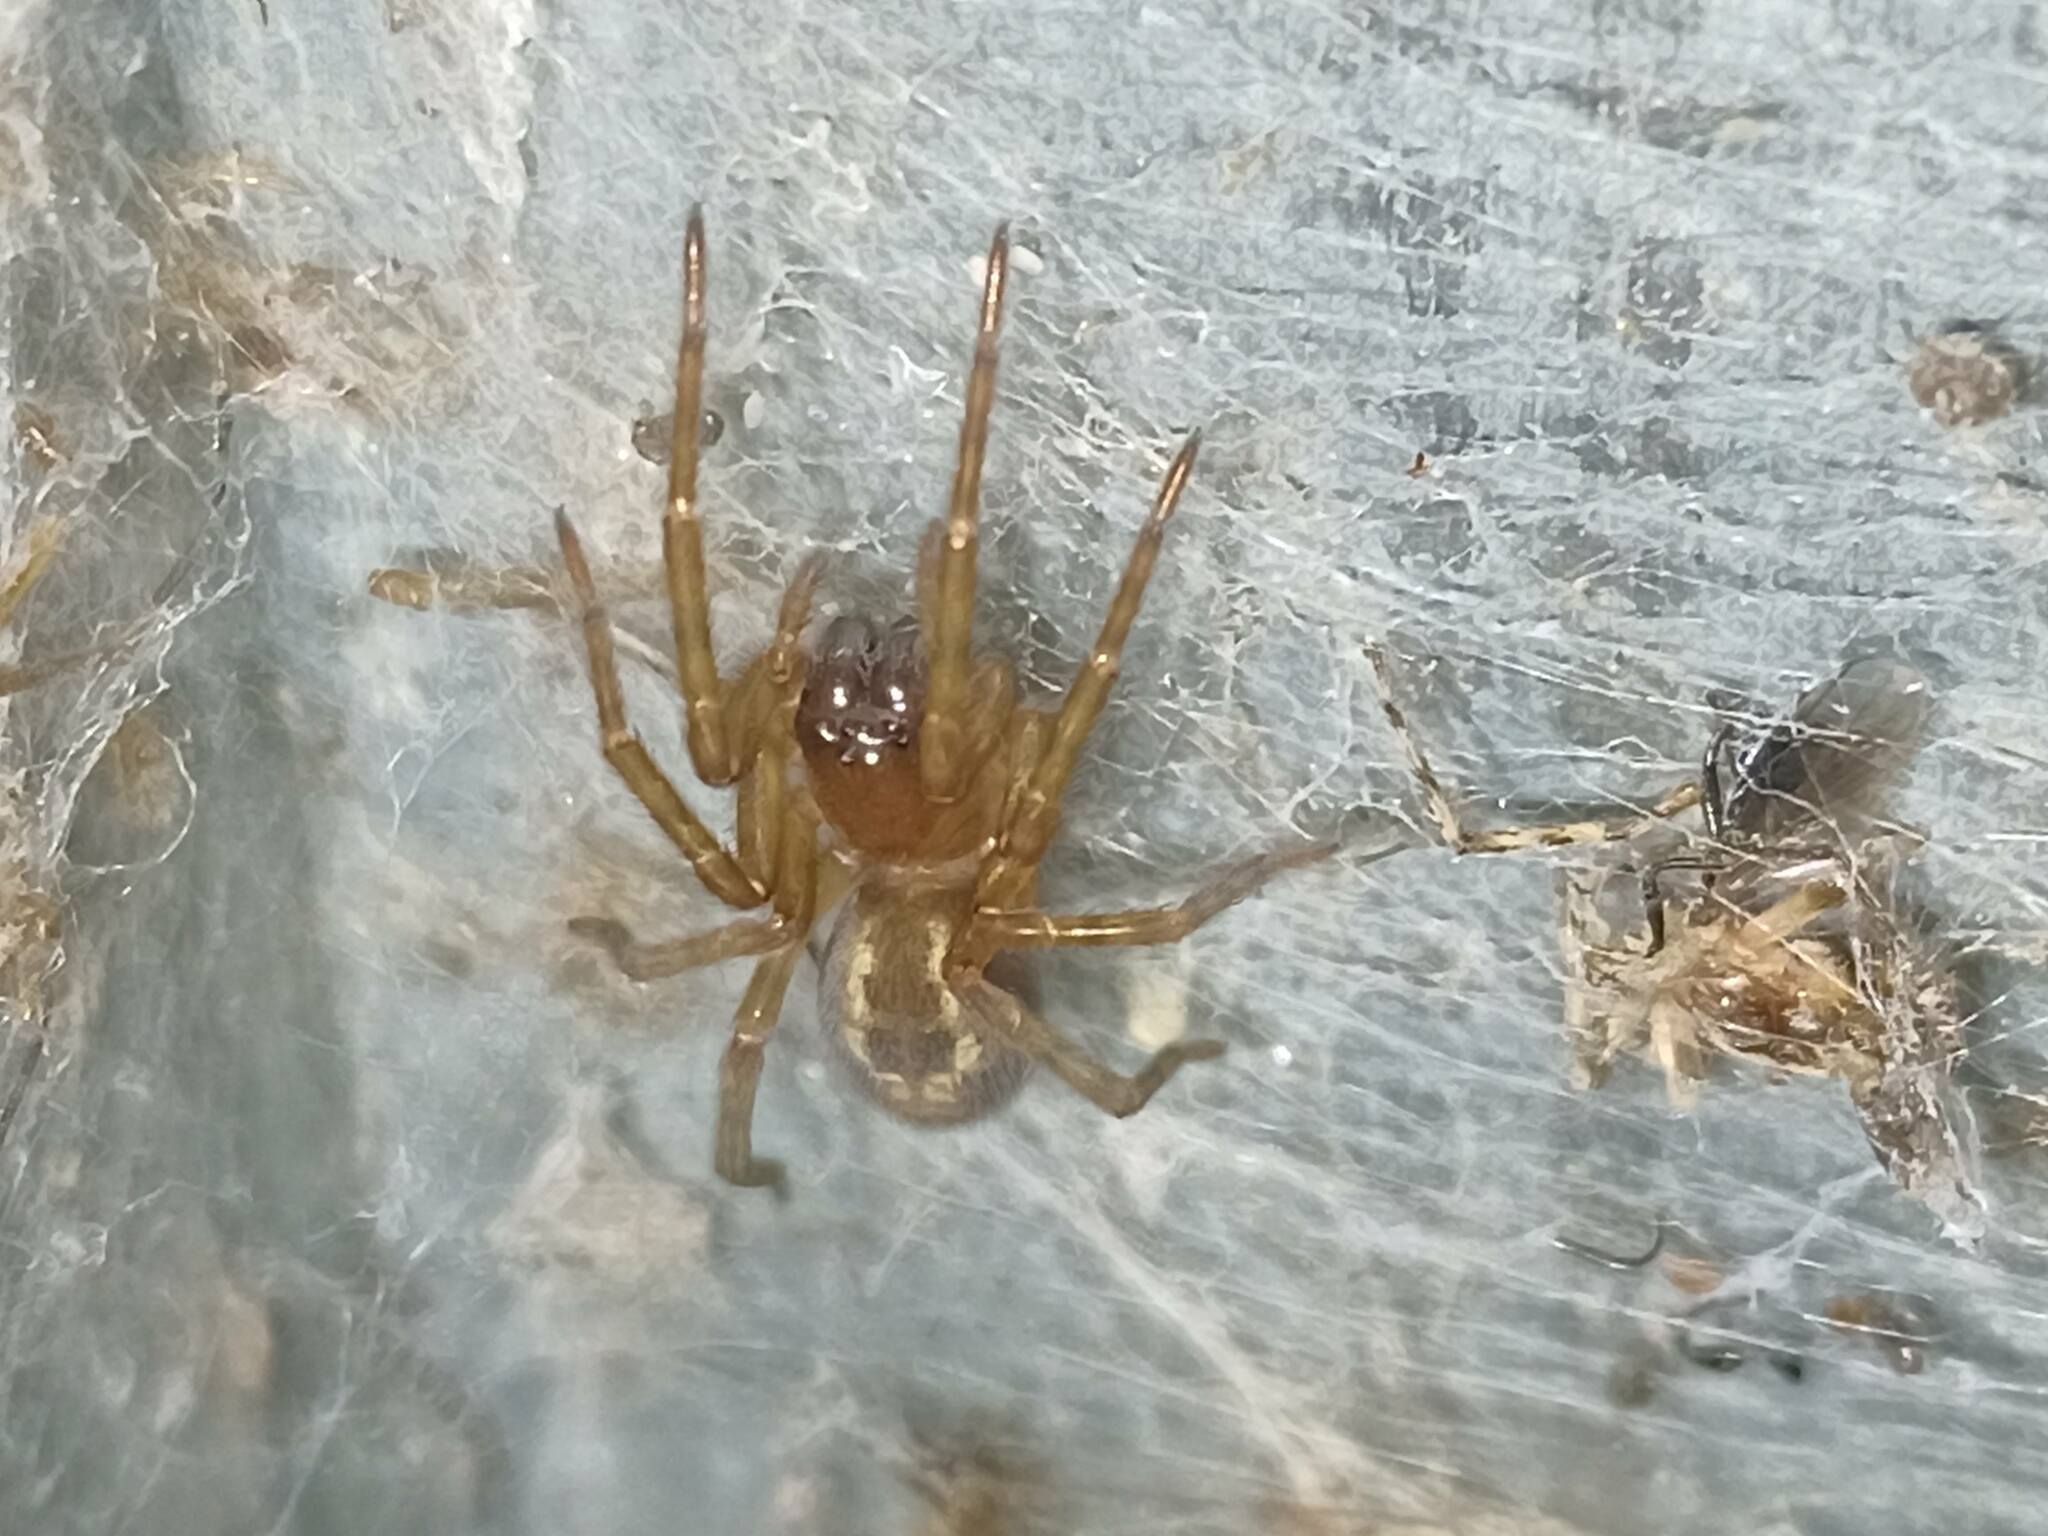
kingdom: Animalia
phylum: Arthropoda
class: Arachnida
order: Araneae
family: Amaurobiidae
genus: Amaurobius
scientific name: Amaurobius similis
